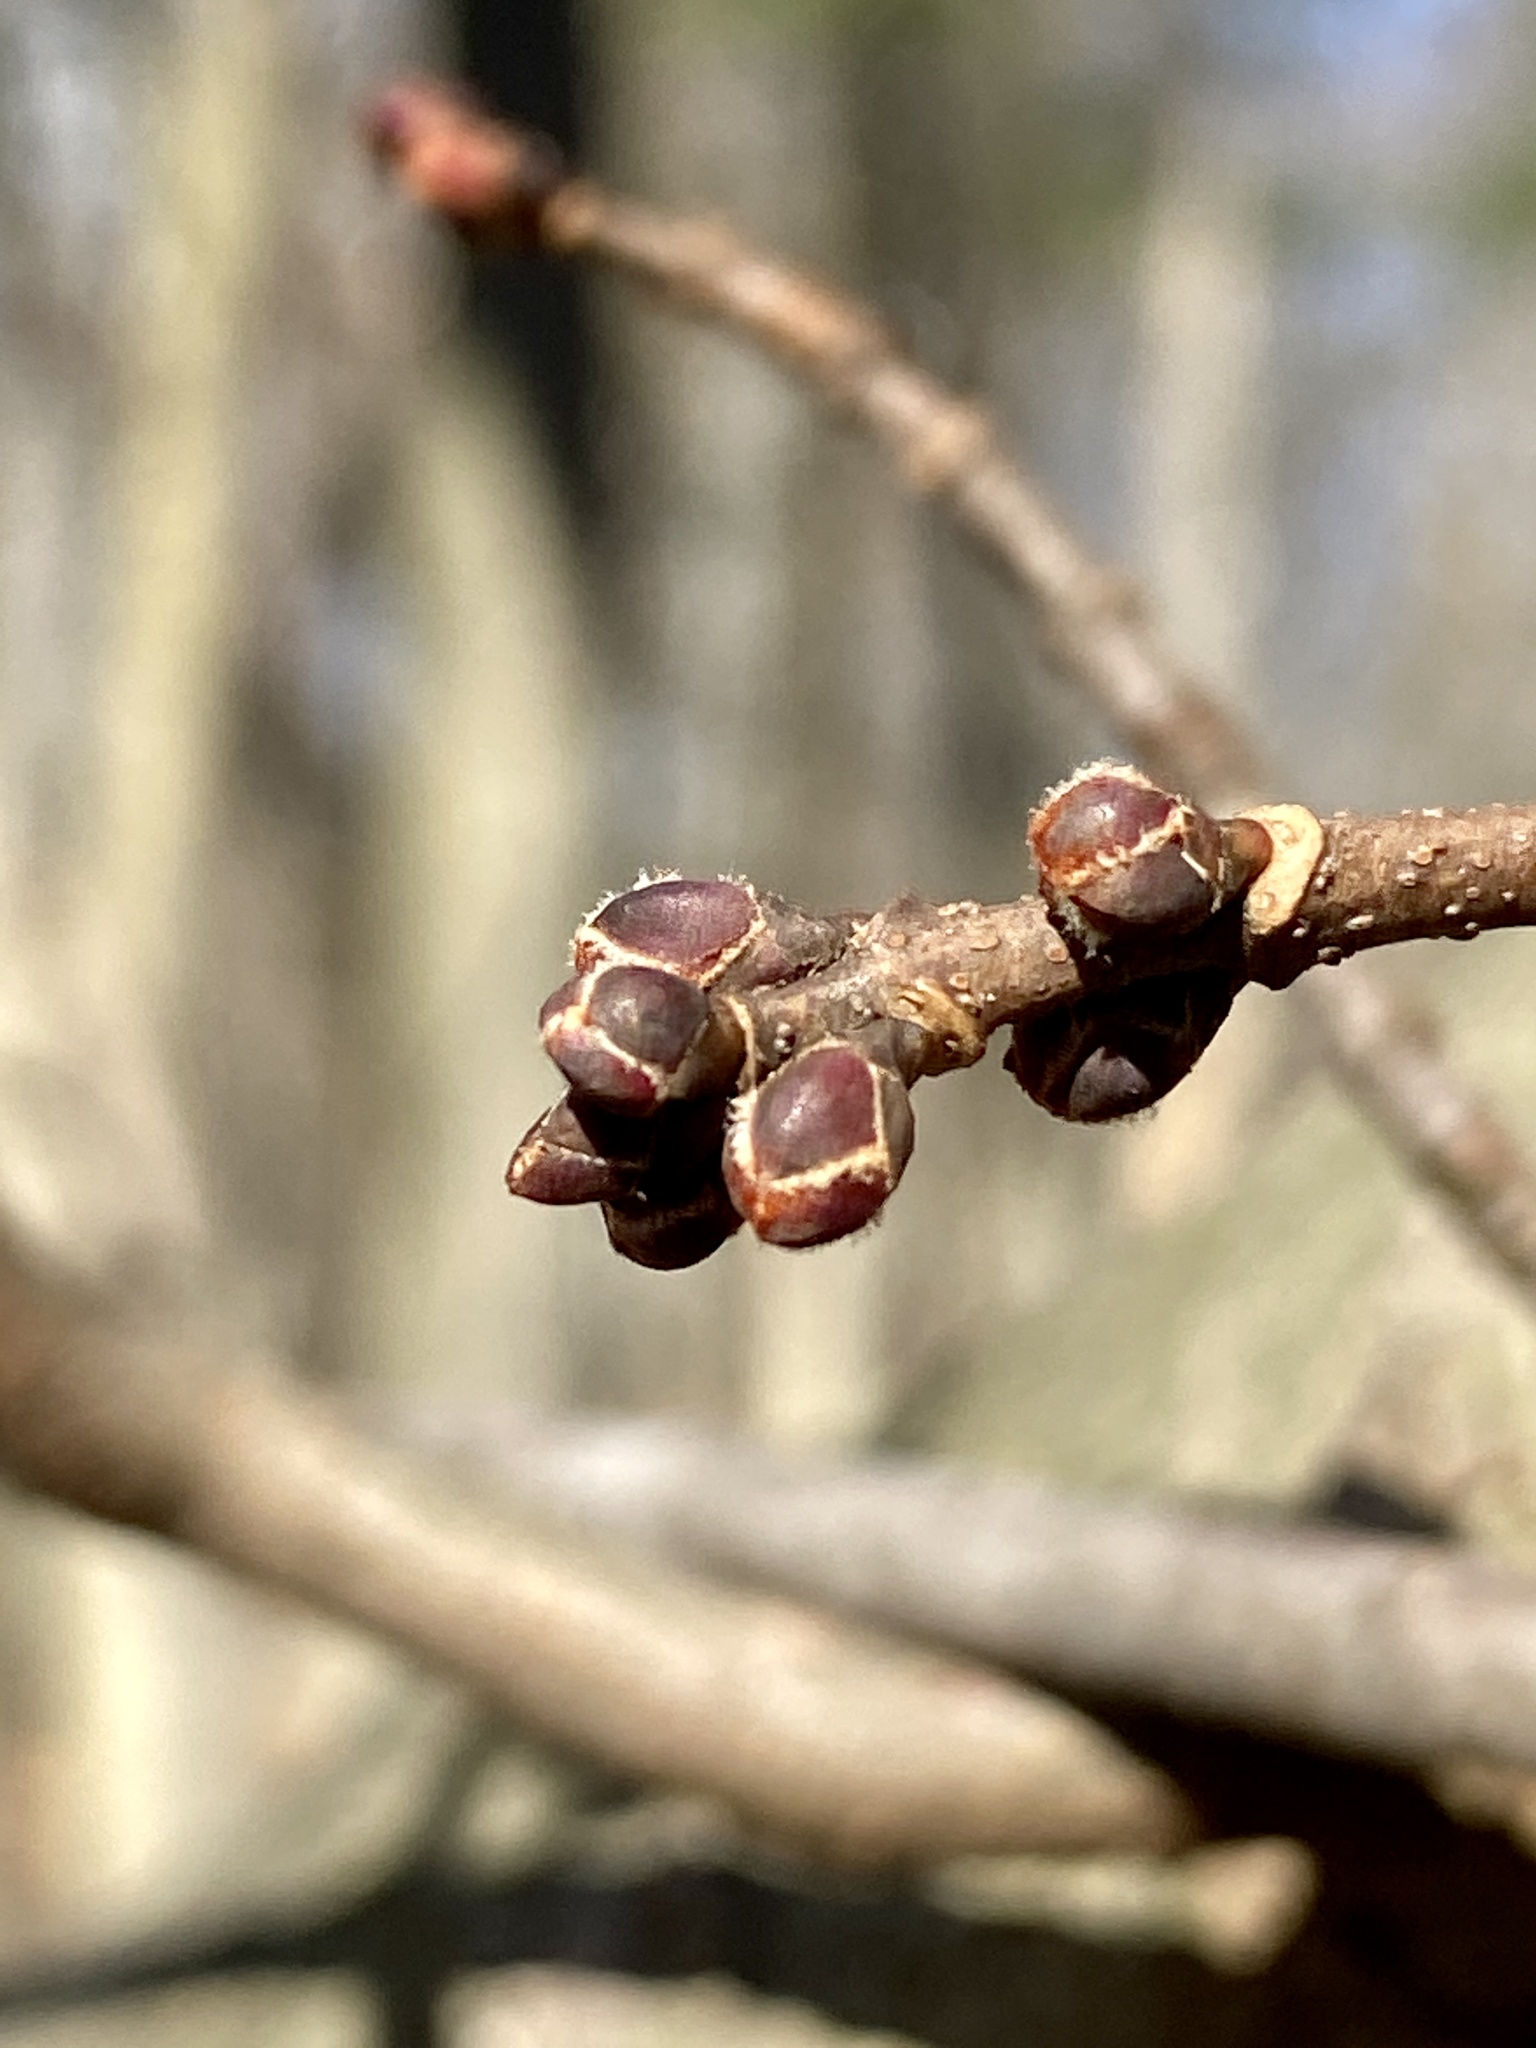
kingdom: Plantae
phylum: Tracheophyta
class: Magnoliopsida
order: Sapindales
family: Sapindaceae
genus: Acer
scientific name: Acer saccharinum
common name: Silver maple
